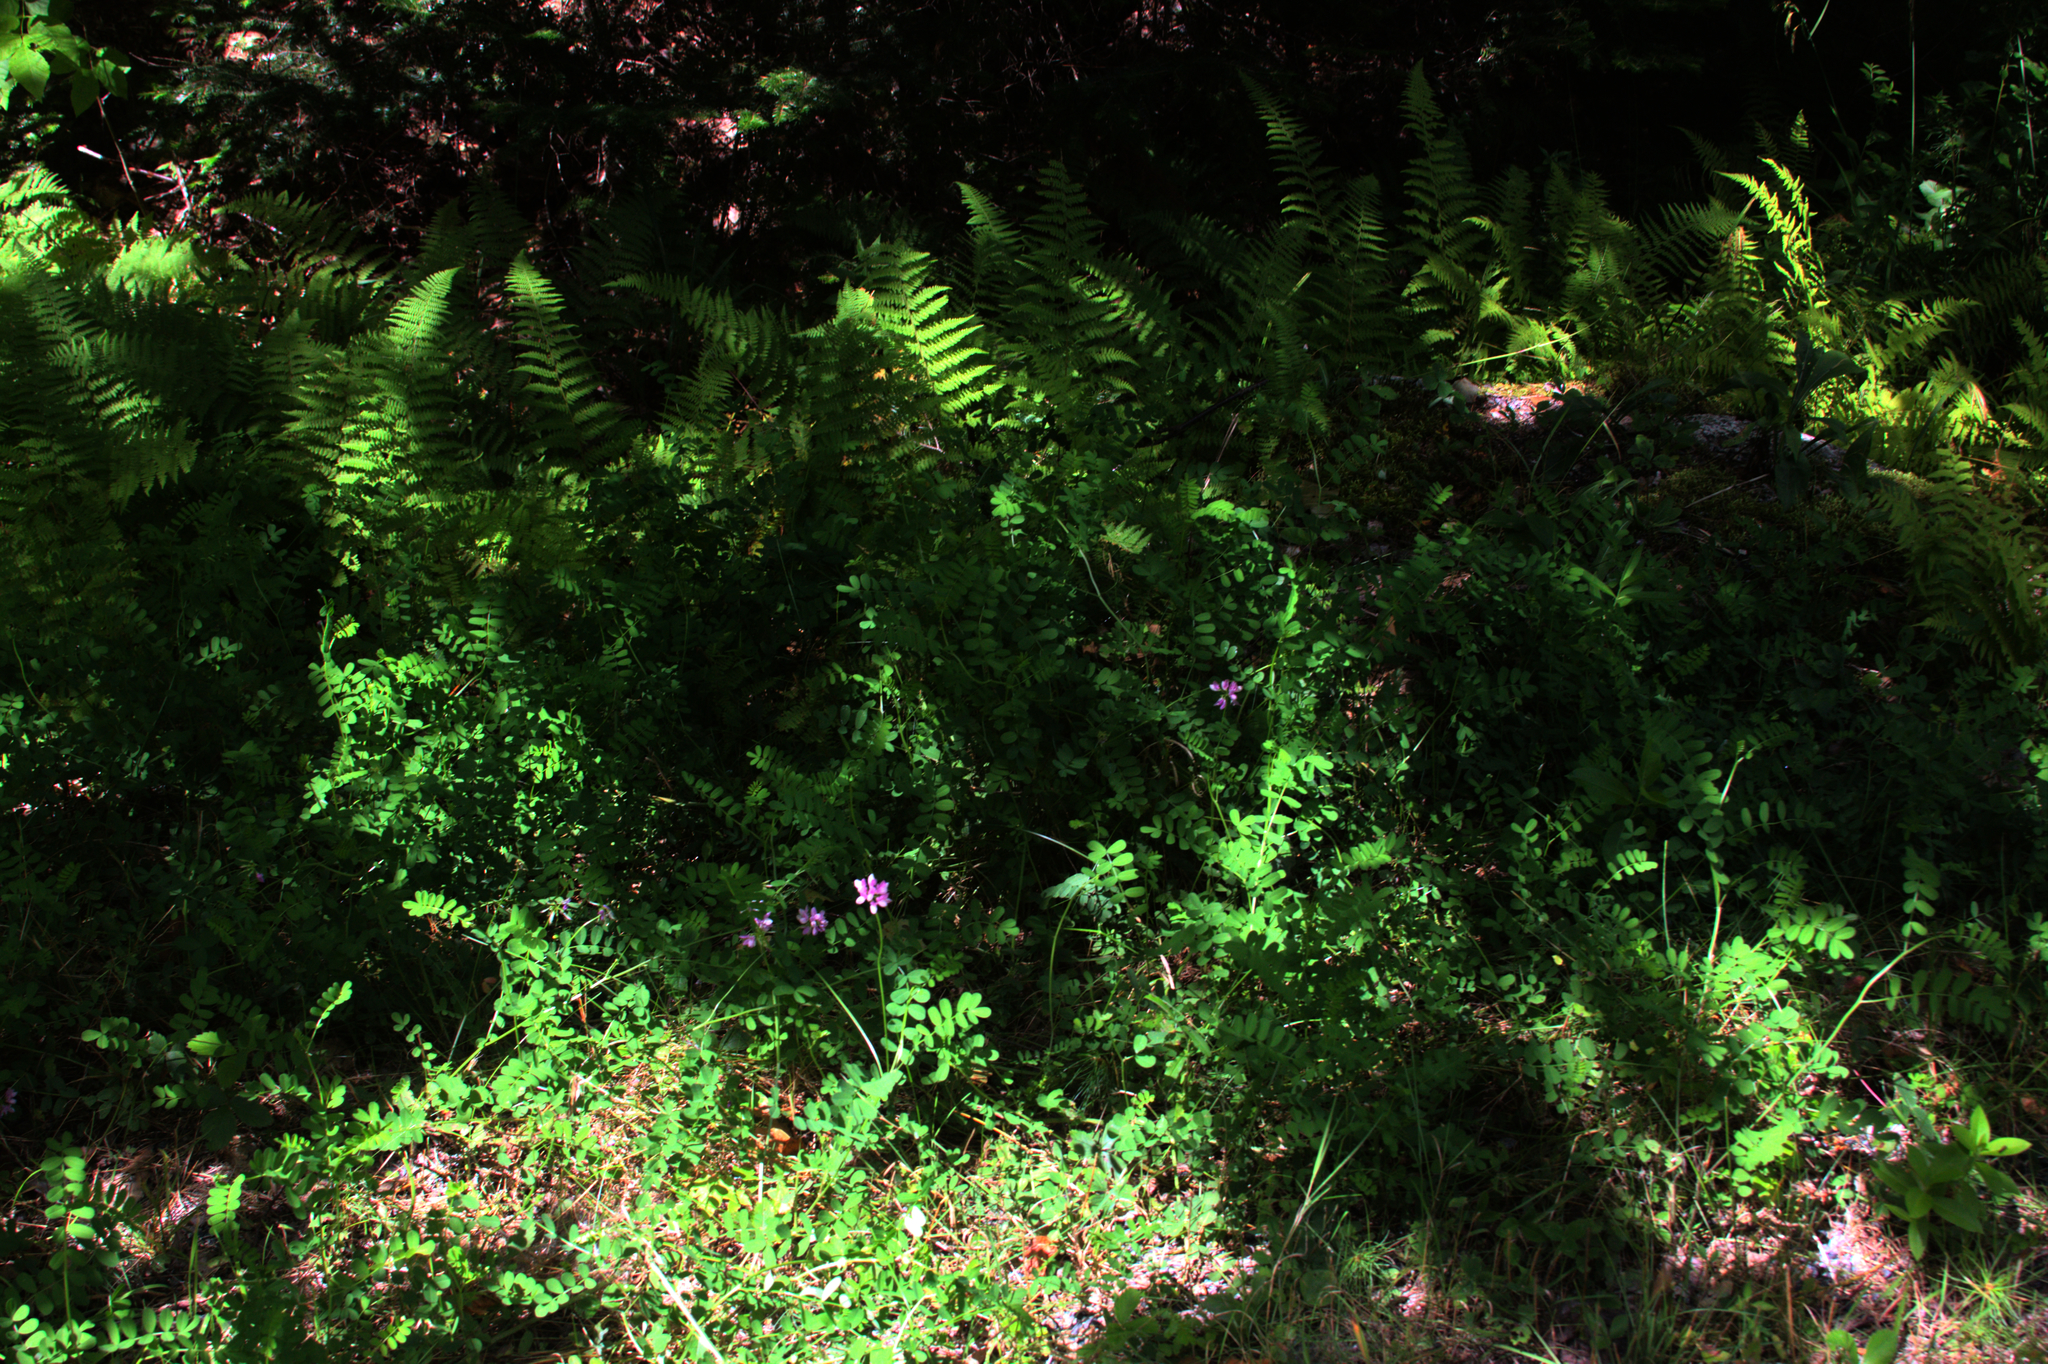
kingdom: Plantae
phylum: Tracheophyta
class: Magnoliopsida
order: Fabales
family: Fabaceae
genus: Coronilla
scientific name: Coronilla varia
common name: Crownvetch
